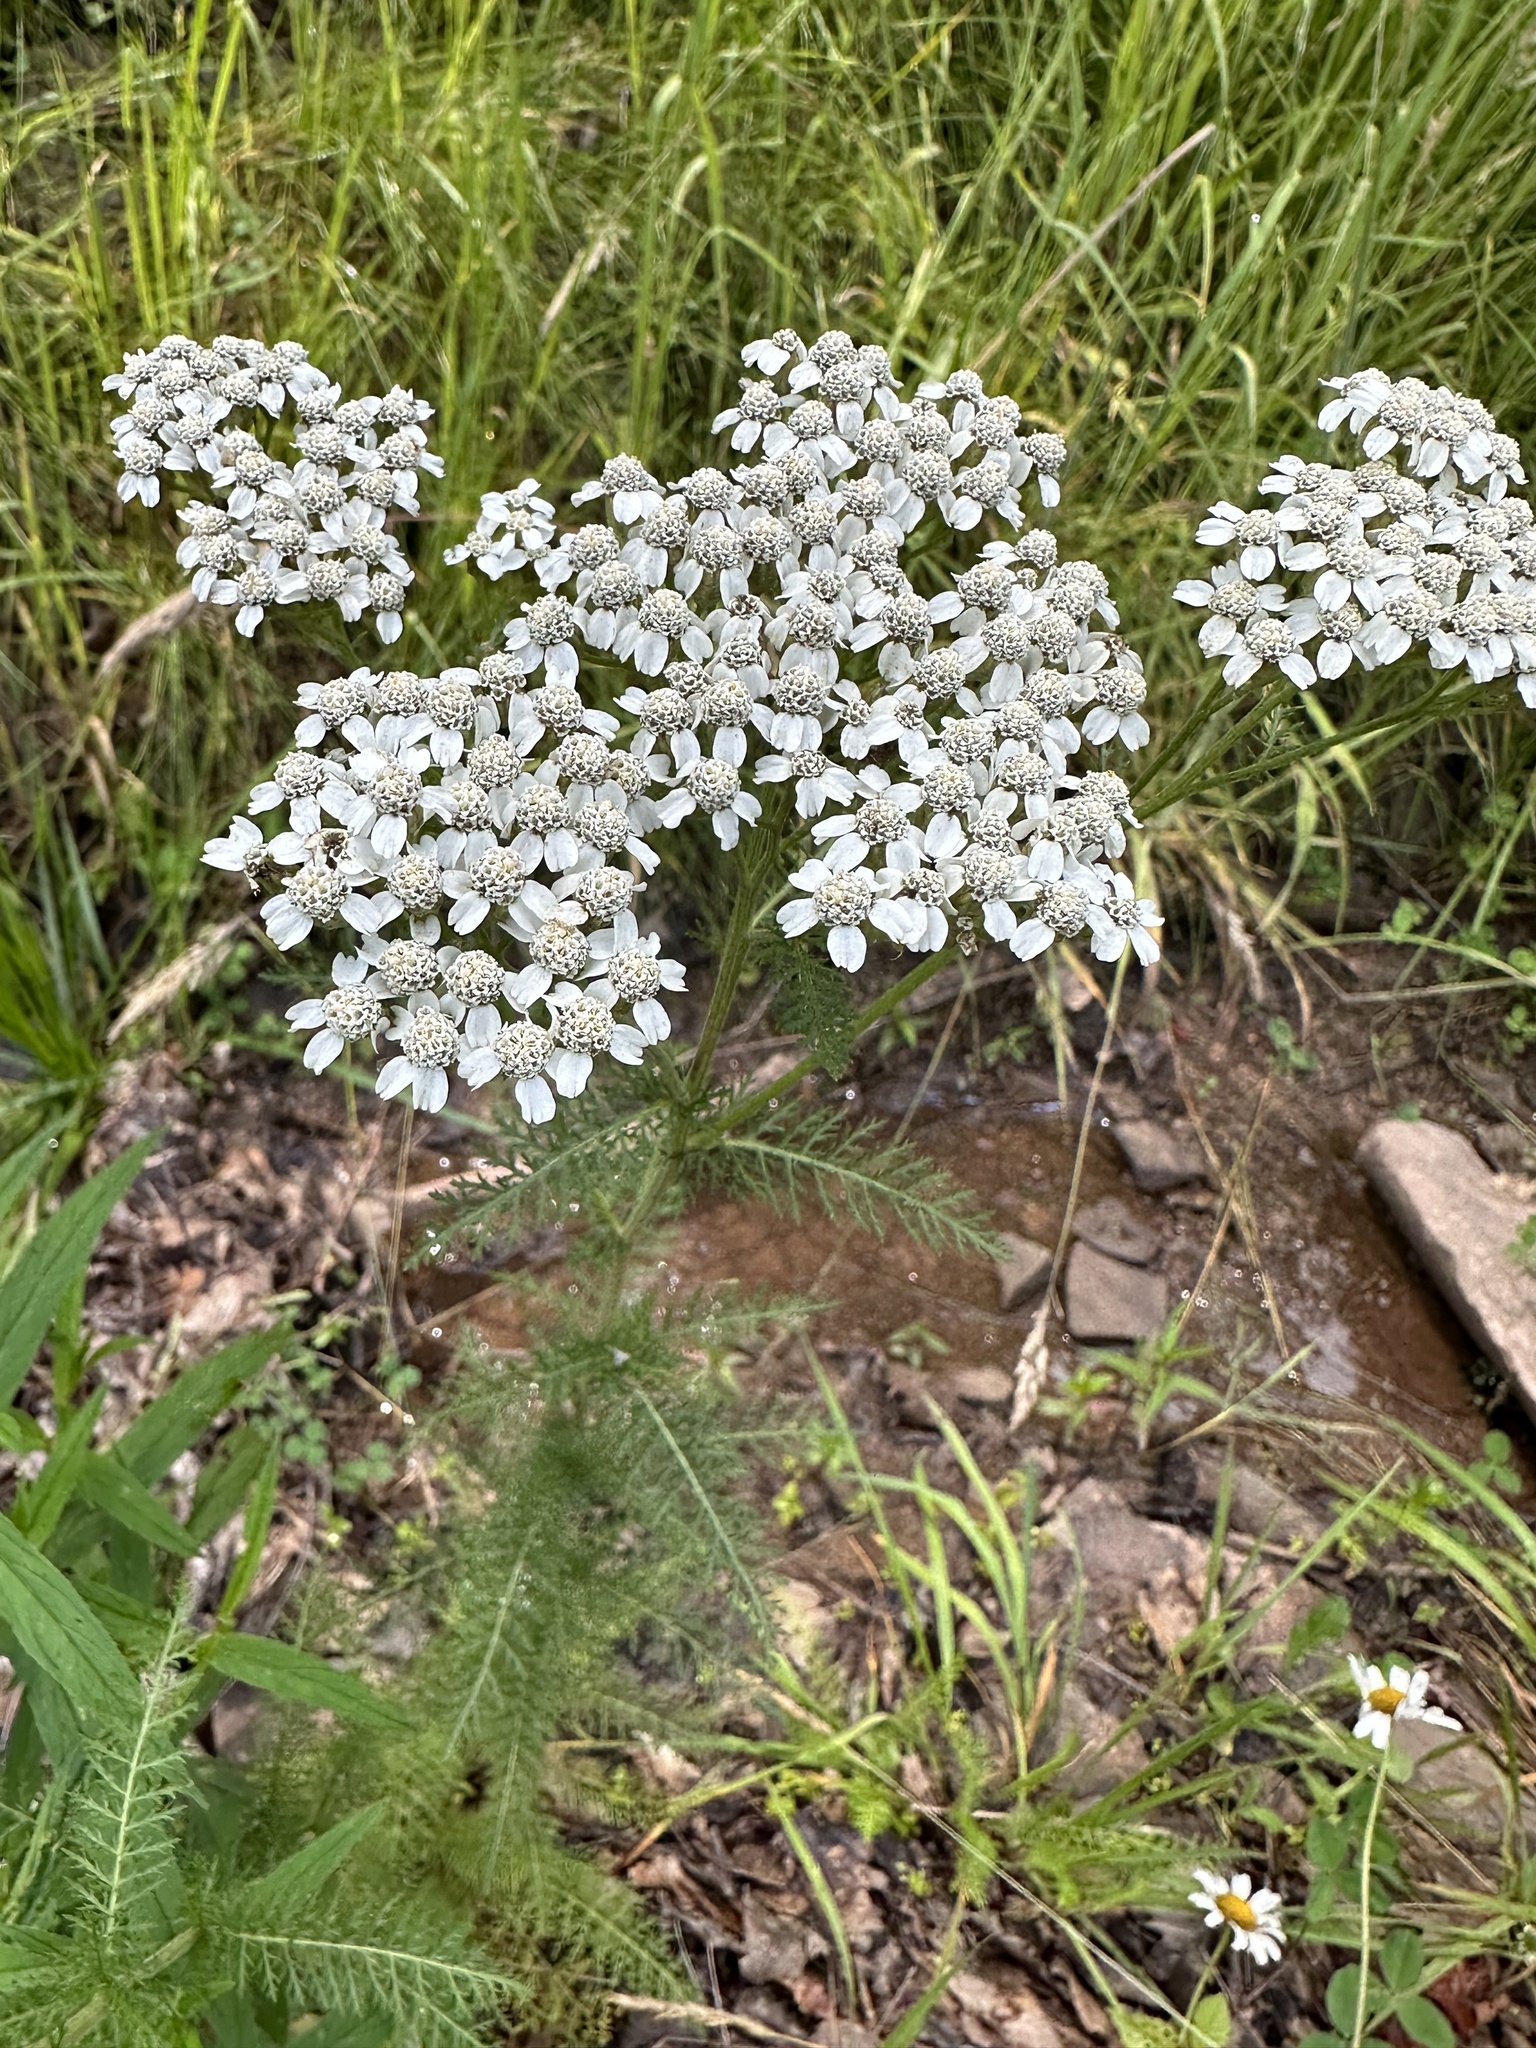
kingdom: Plantae
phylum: Tracheophyta
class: Magnoliopsida
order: Asterales
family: Asteraceae
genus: Achillea
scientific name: Achillea millefolium
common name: Yarrow
